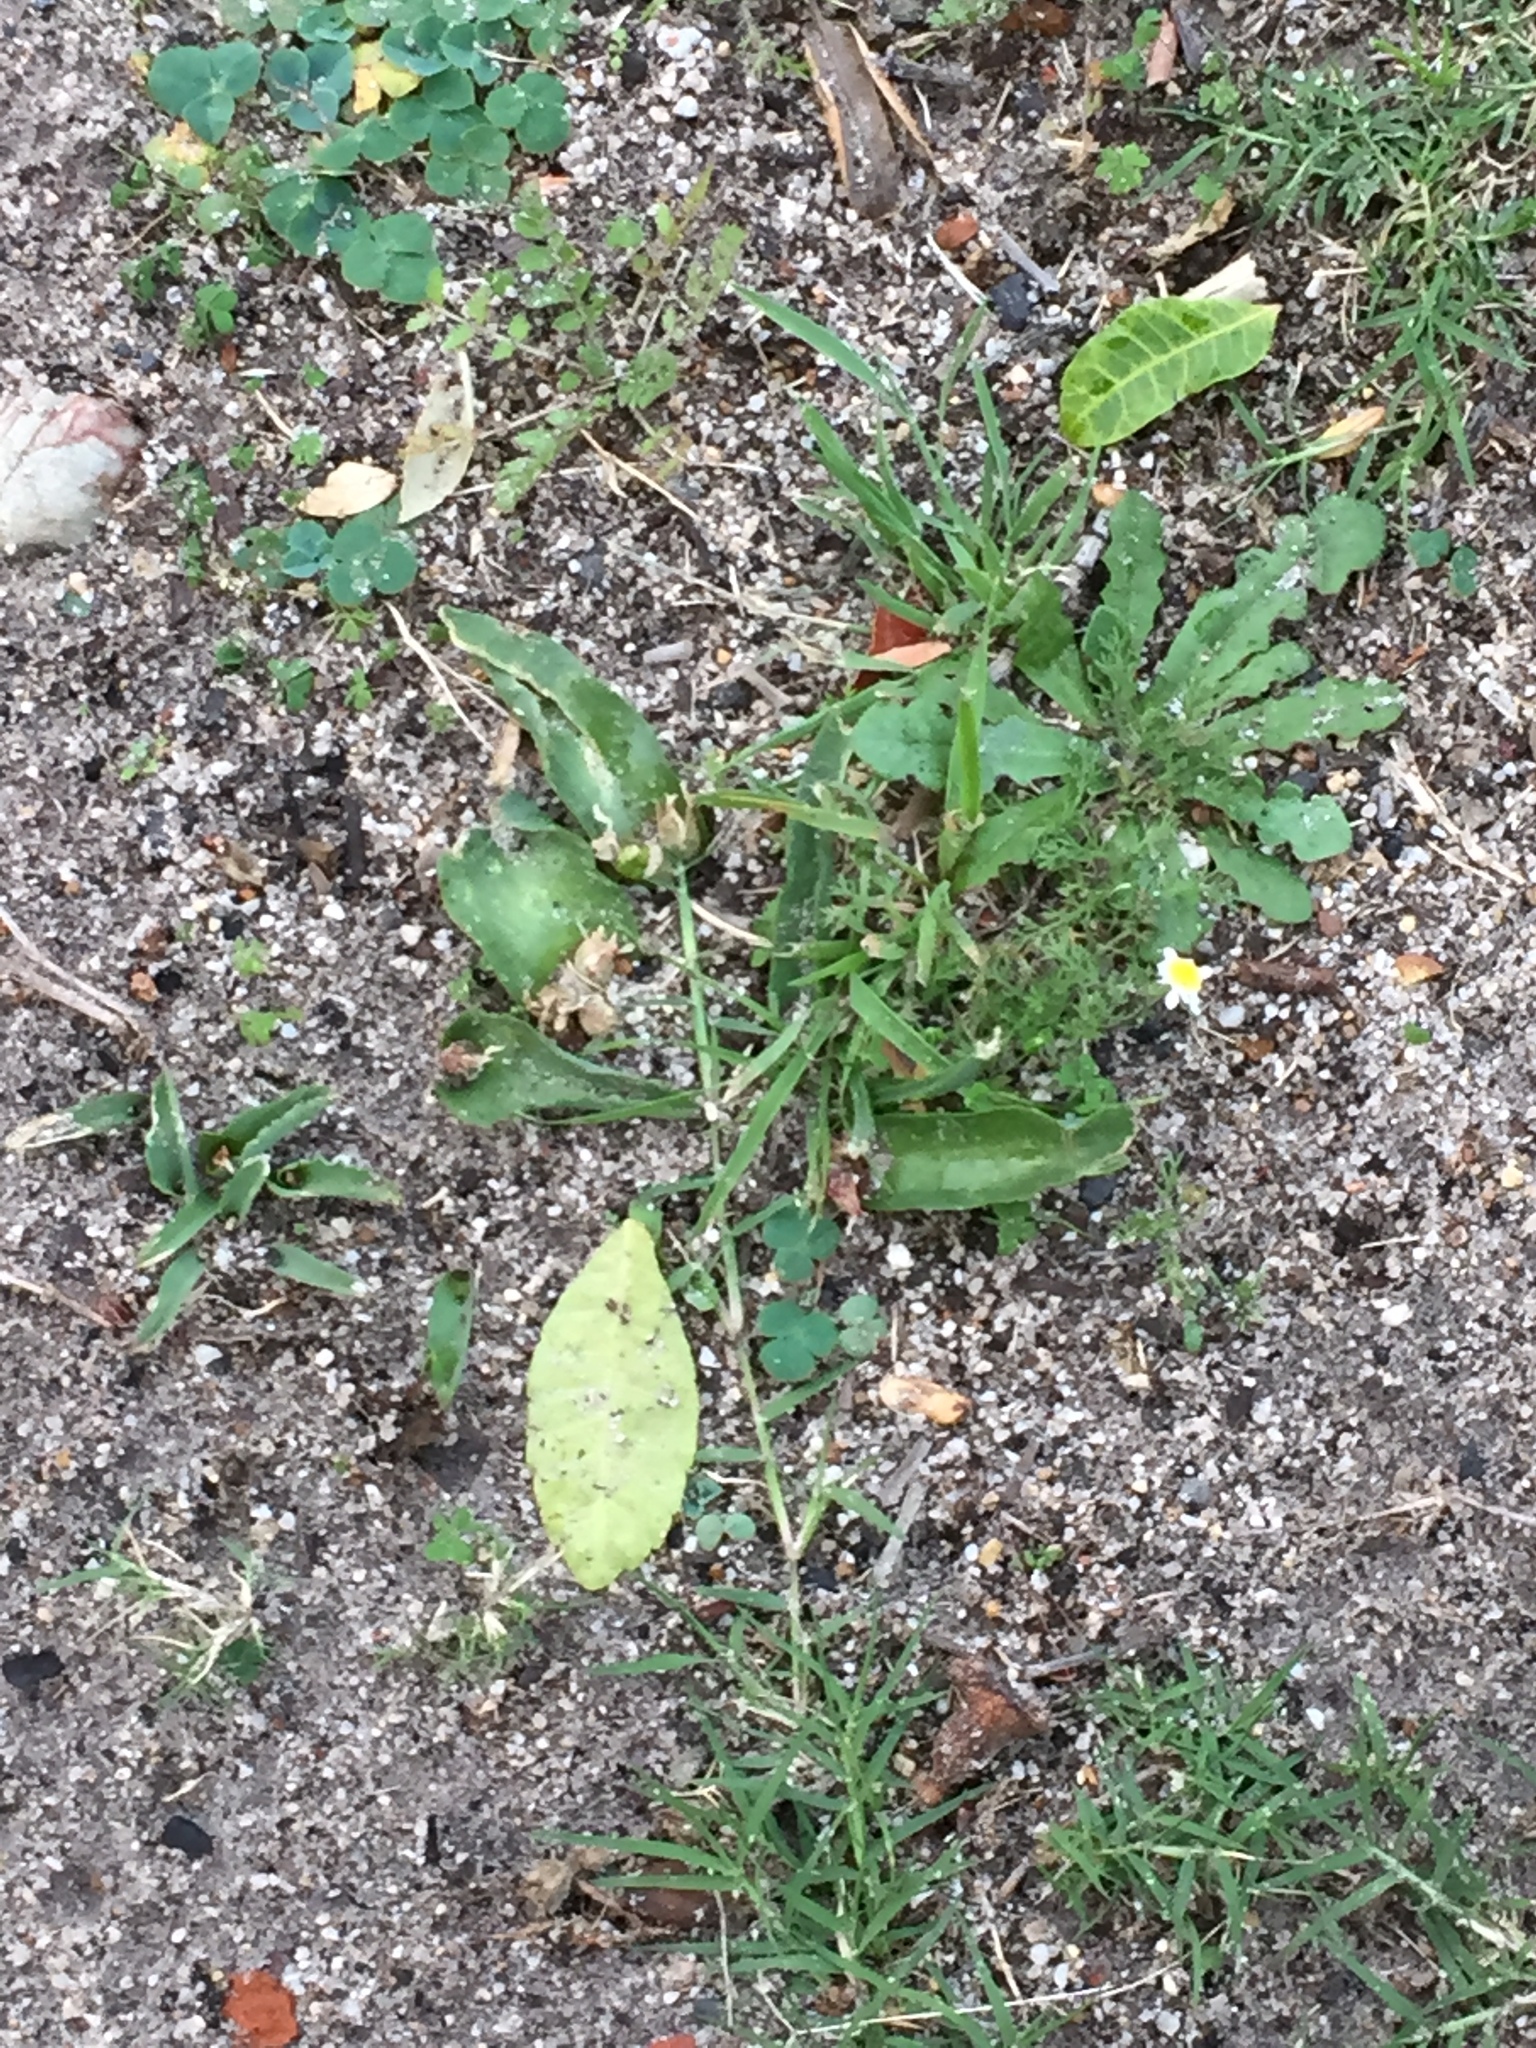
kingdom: Plantae
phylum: Tracheophyta
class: Liliopsida
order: Asparagales
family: Asparagaceae
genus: Lachenalia
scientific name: Lachenalia reflexa
